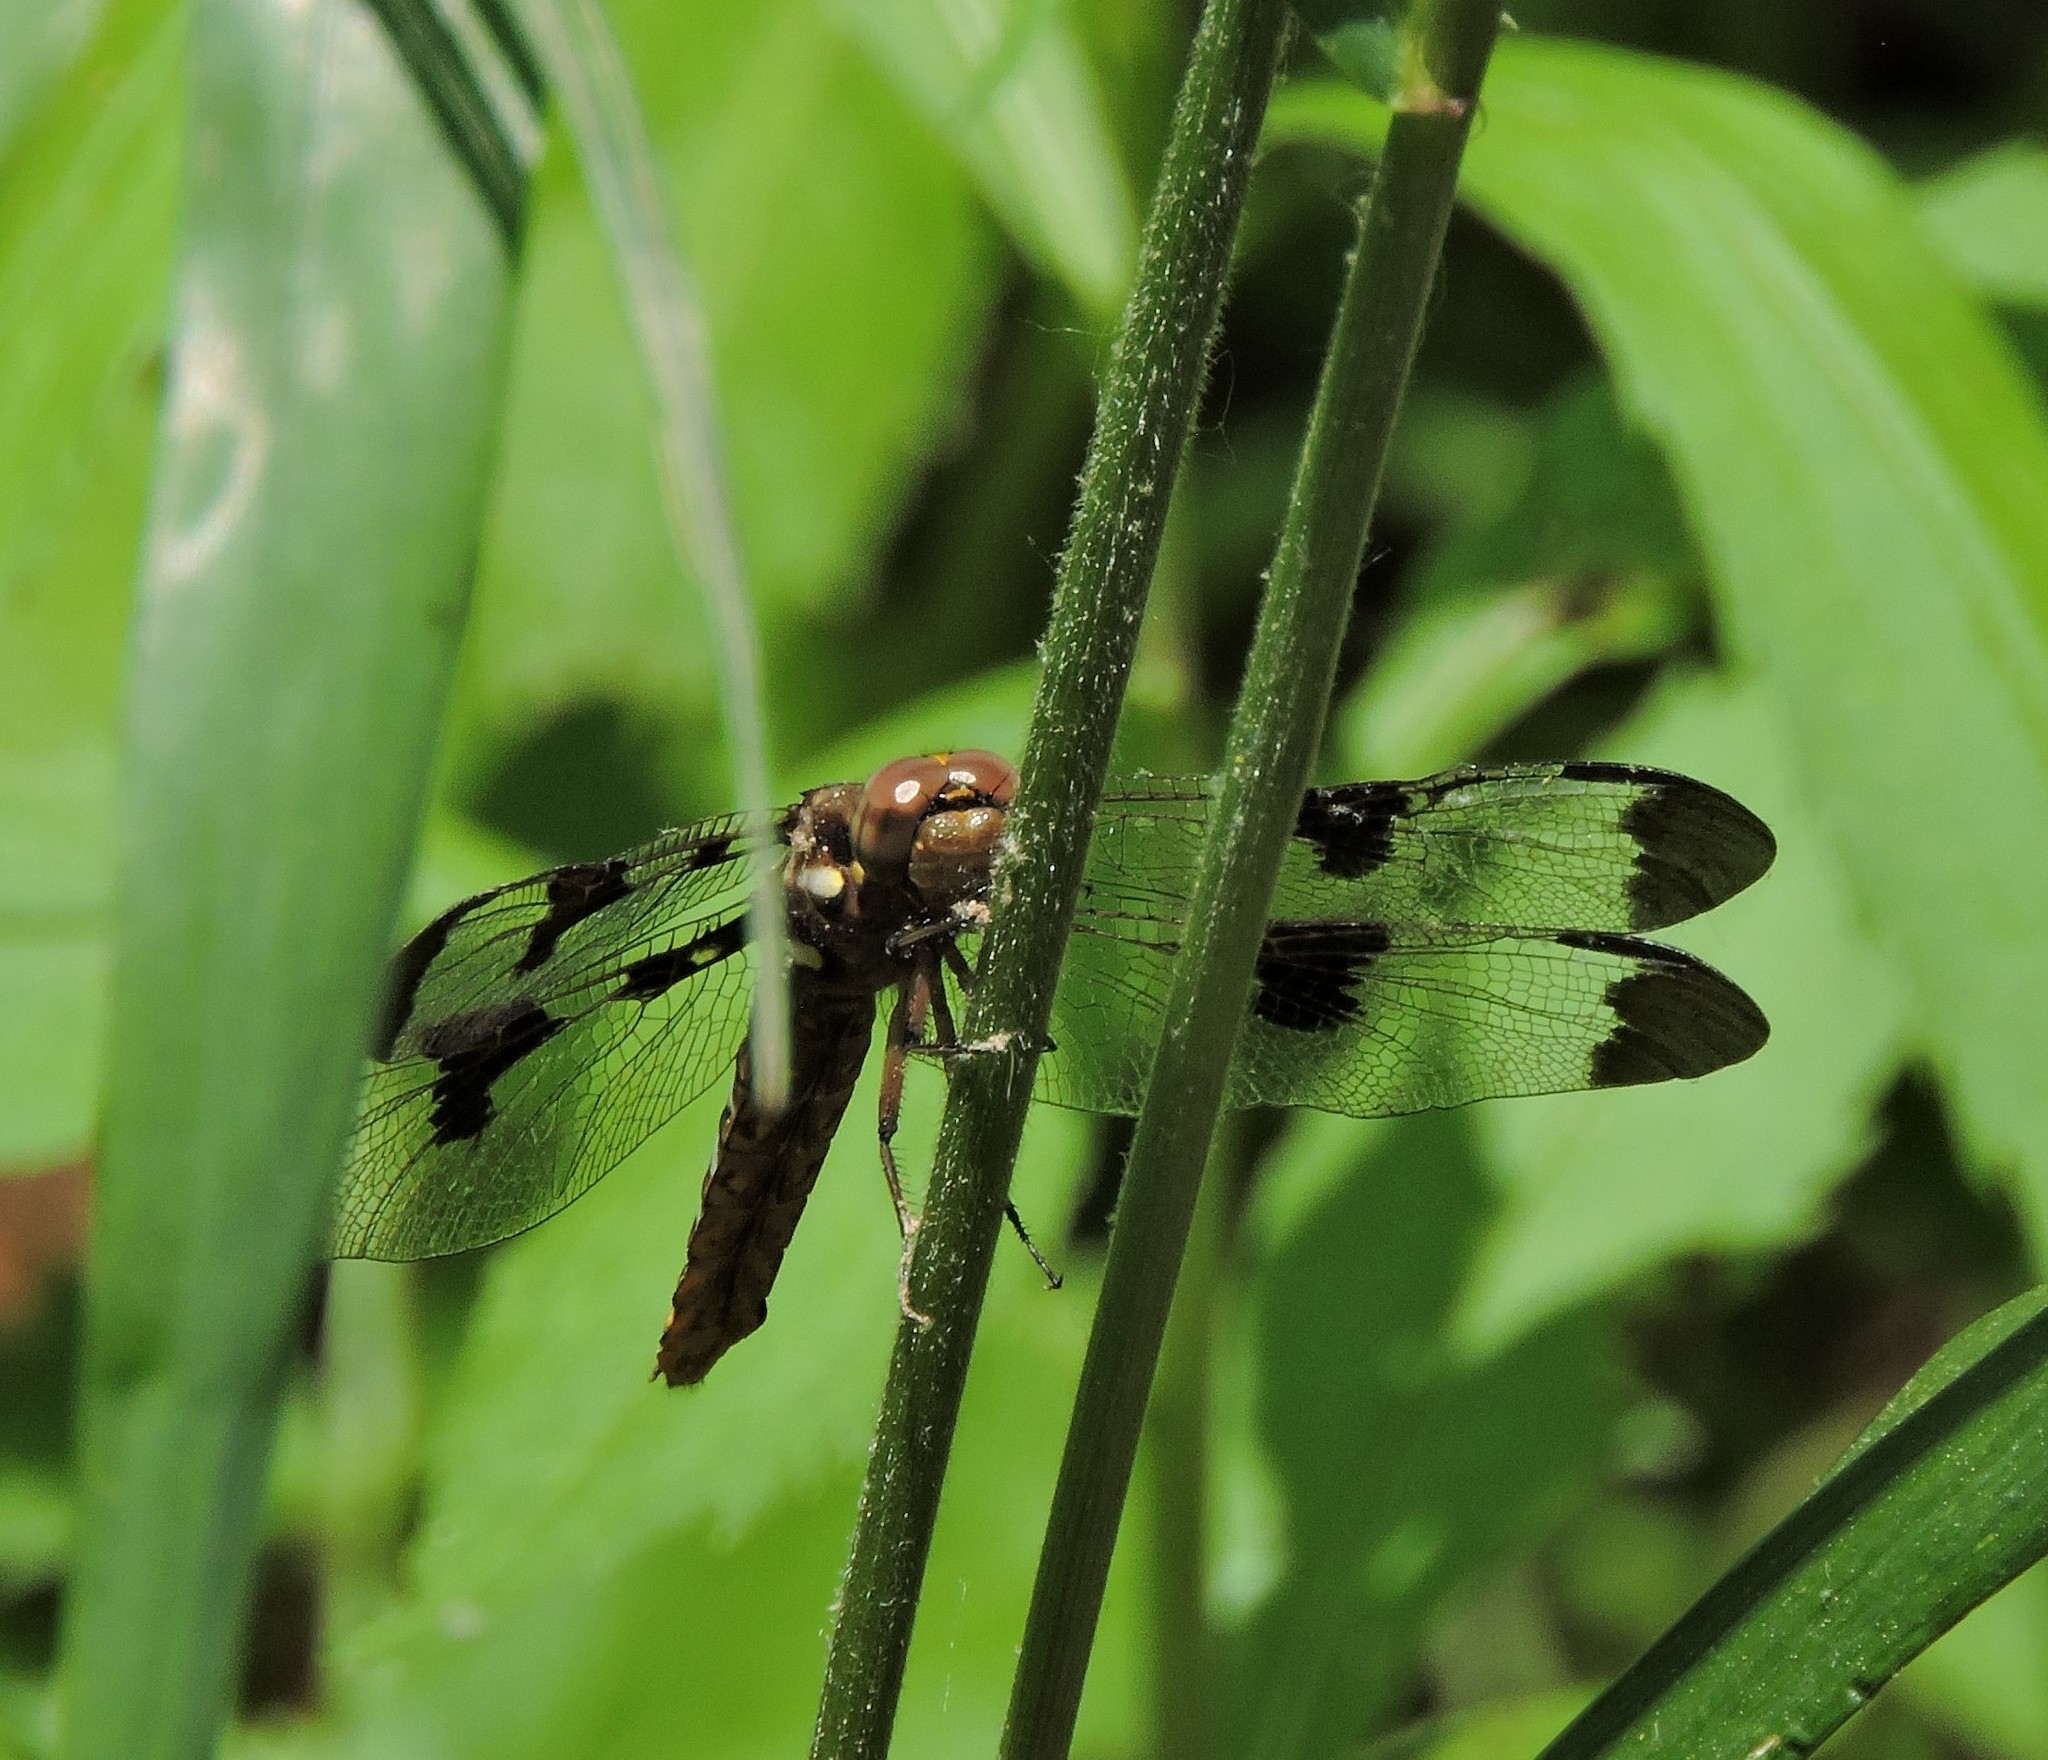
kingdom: Animalia
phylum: Arthropoda
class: Insecta
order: Odonata
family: Libellulidae
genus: Plathemis
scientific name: Plathemis lydia
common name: Common whitetail
